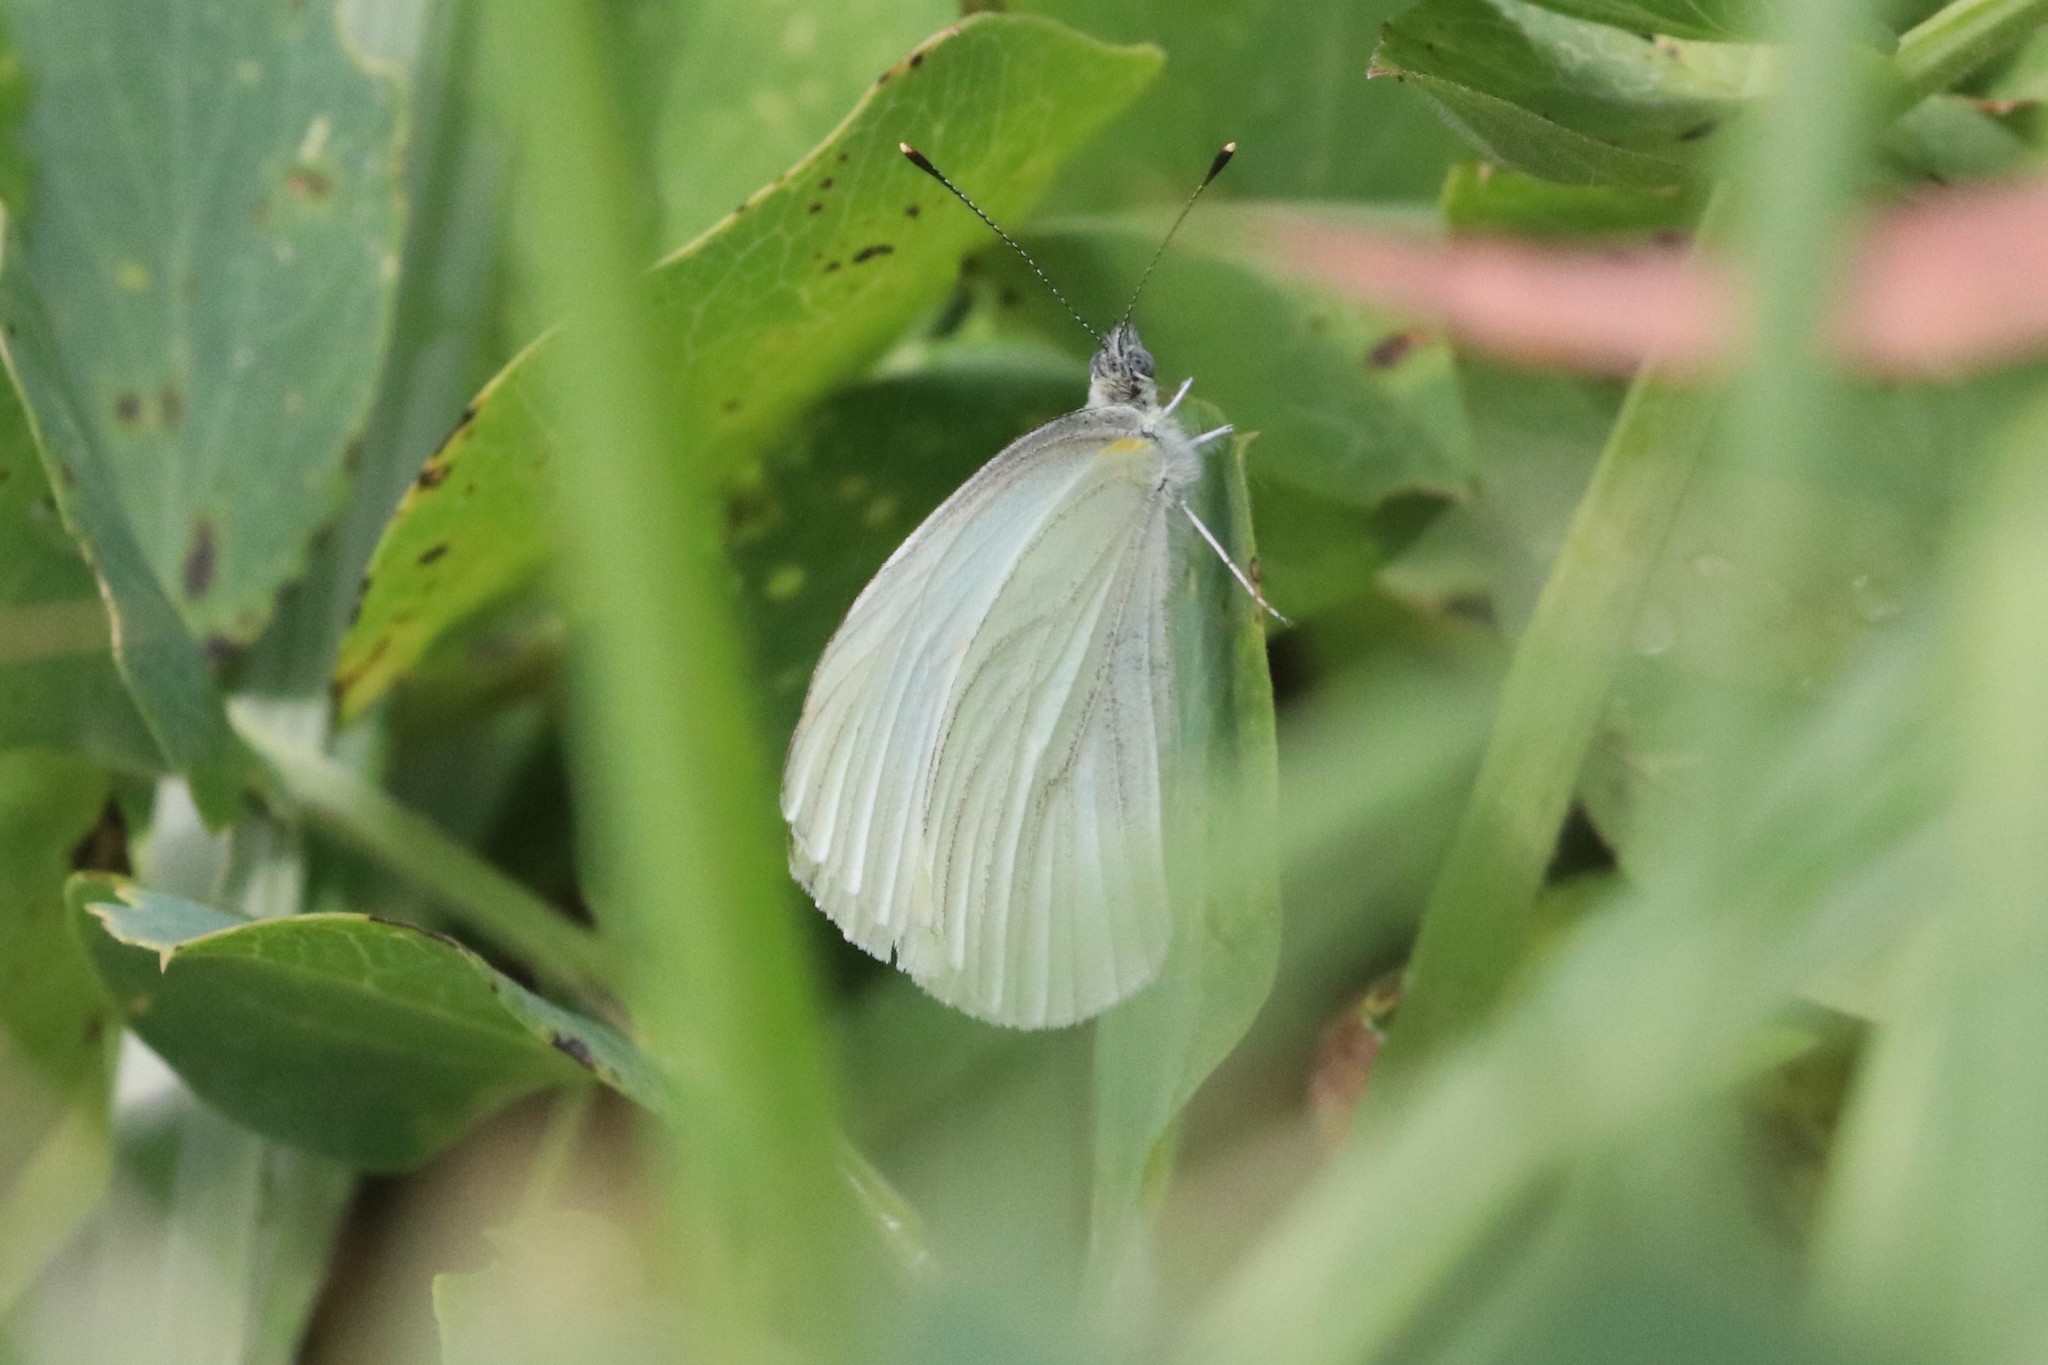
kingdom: Animalia
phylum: Arthropoda
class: Insecta
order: Lepidoptera
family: Pieridae
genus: Pieris
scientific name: Pieris oleracea
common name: Mustard white
